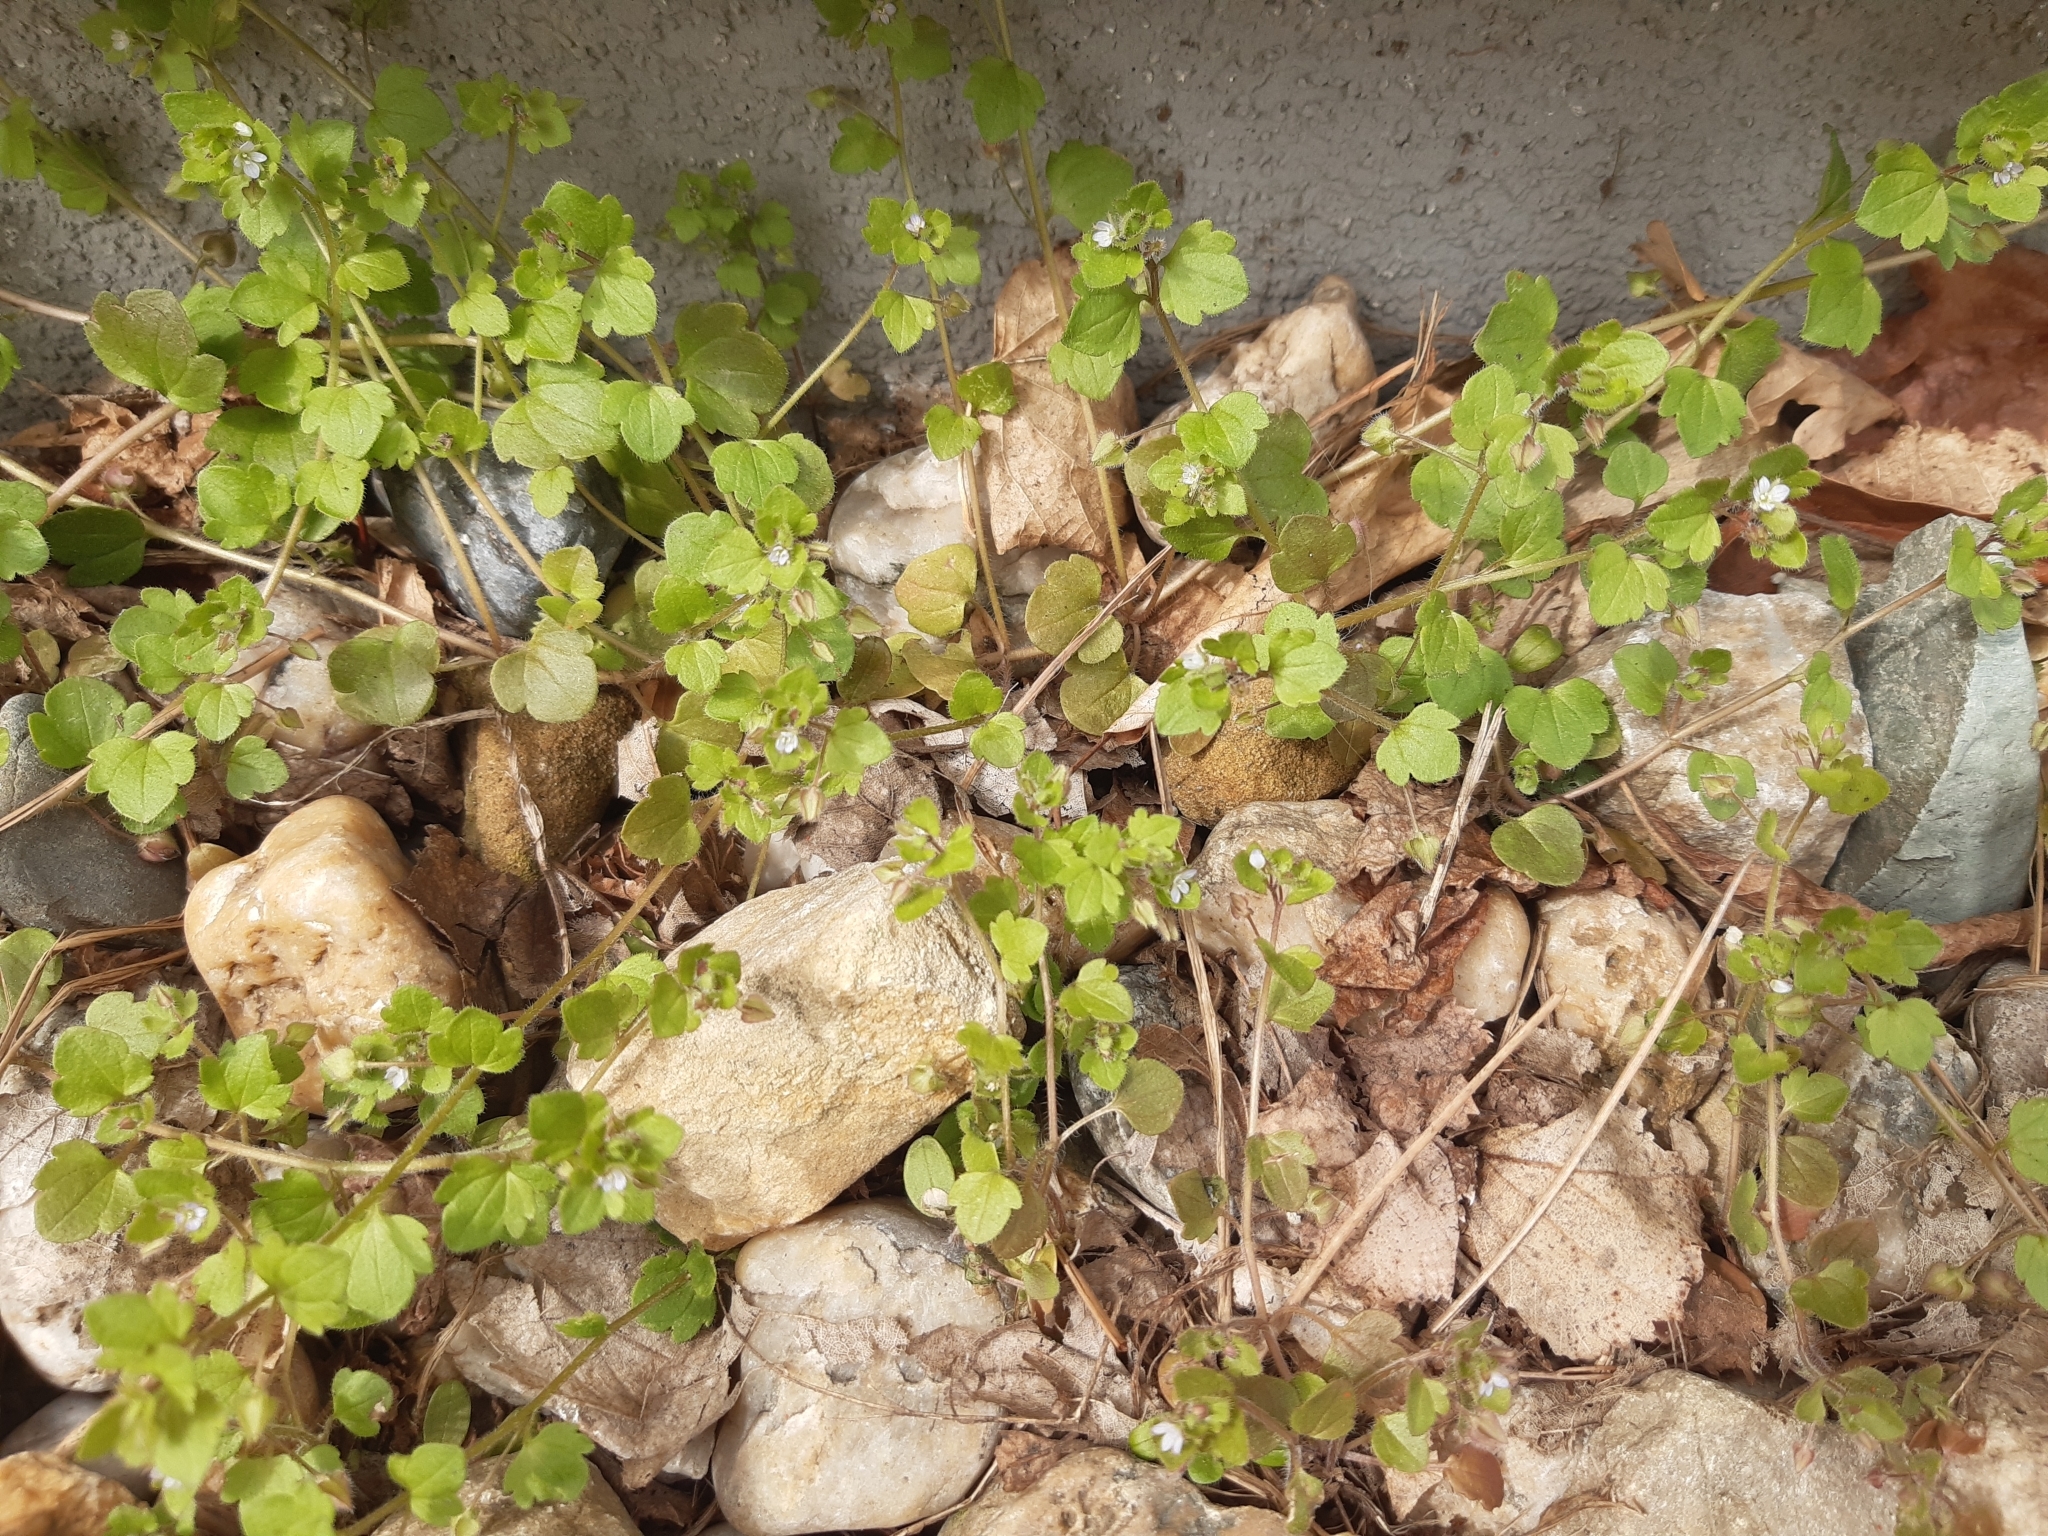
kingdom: Plantae
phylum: Tracheophyta
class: Magnoliopsida
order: Lamiales
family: Plantaginaceae
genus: Veronica
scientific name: Veronica sublobata
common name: False ivy-leaved speedwell
